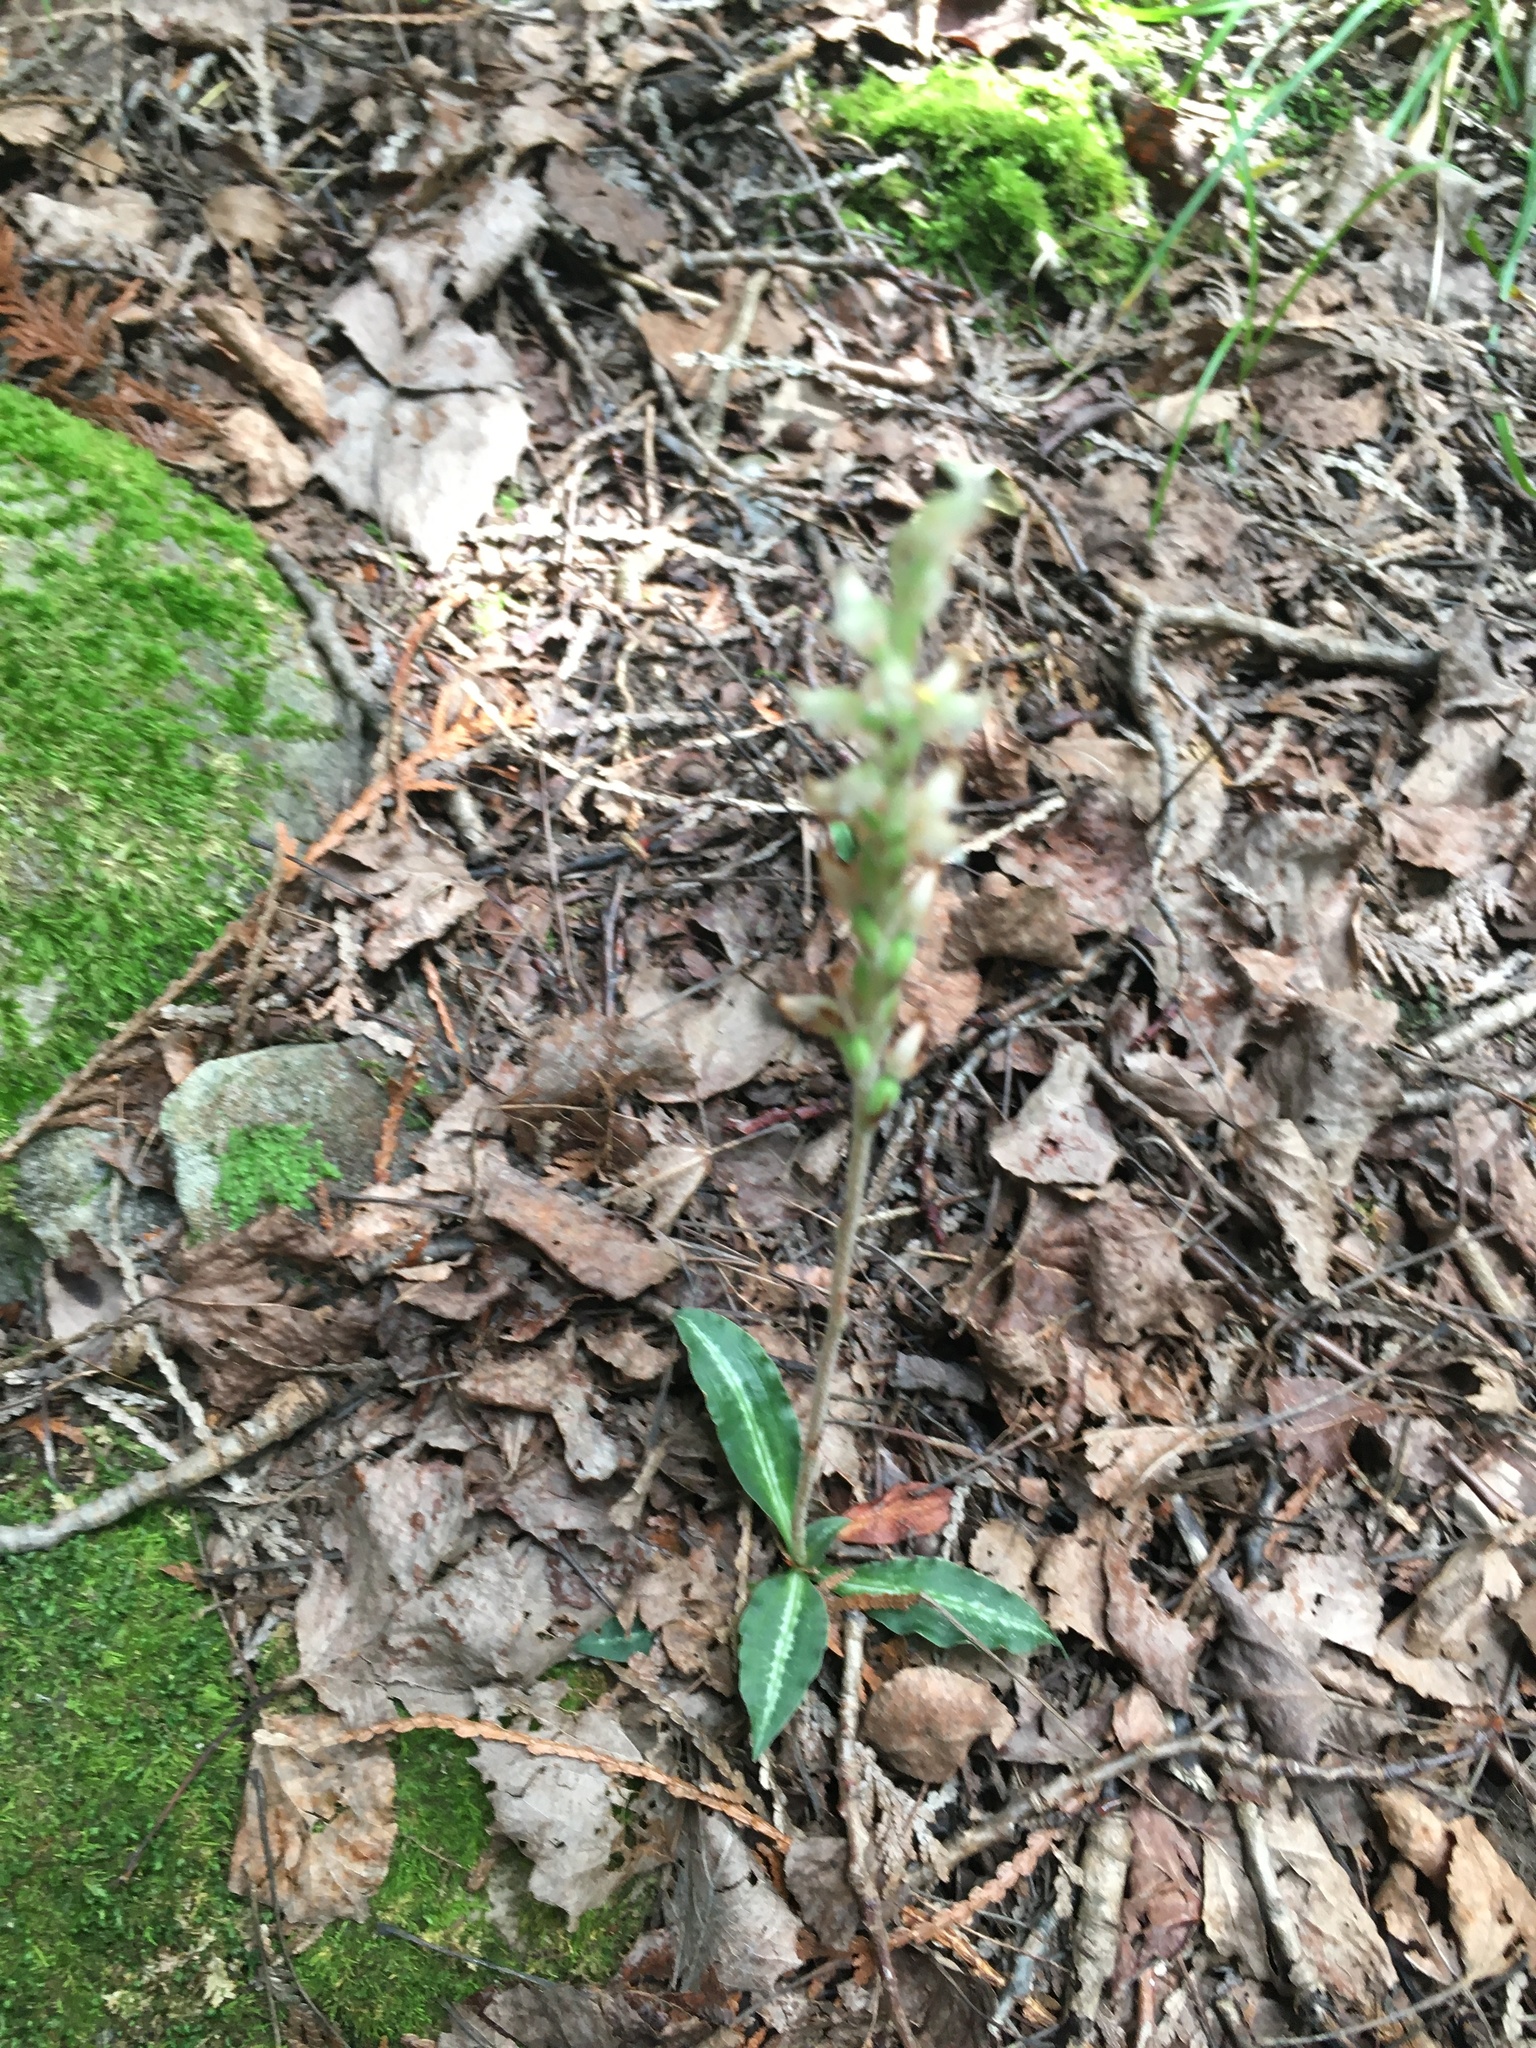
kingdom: Plantae
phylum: Tracheophyta
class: Liliopsida
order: Asparagales
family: Orchidaceae
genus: Goodyera
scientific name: Goodyera oblongifolia
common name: Giant rattlesnake-plantain
